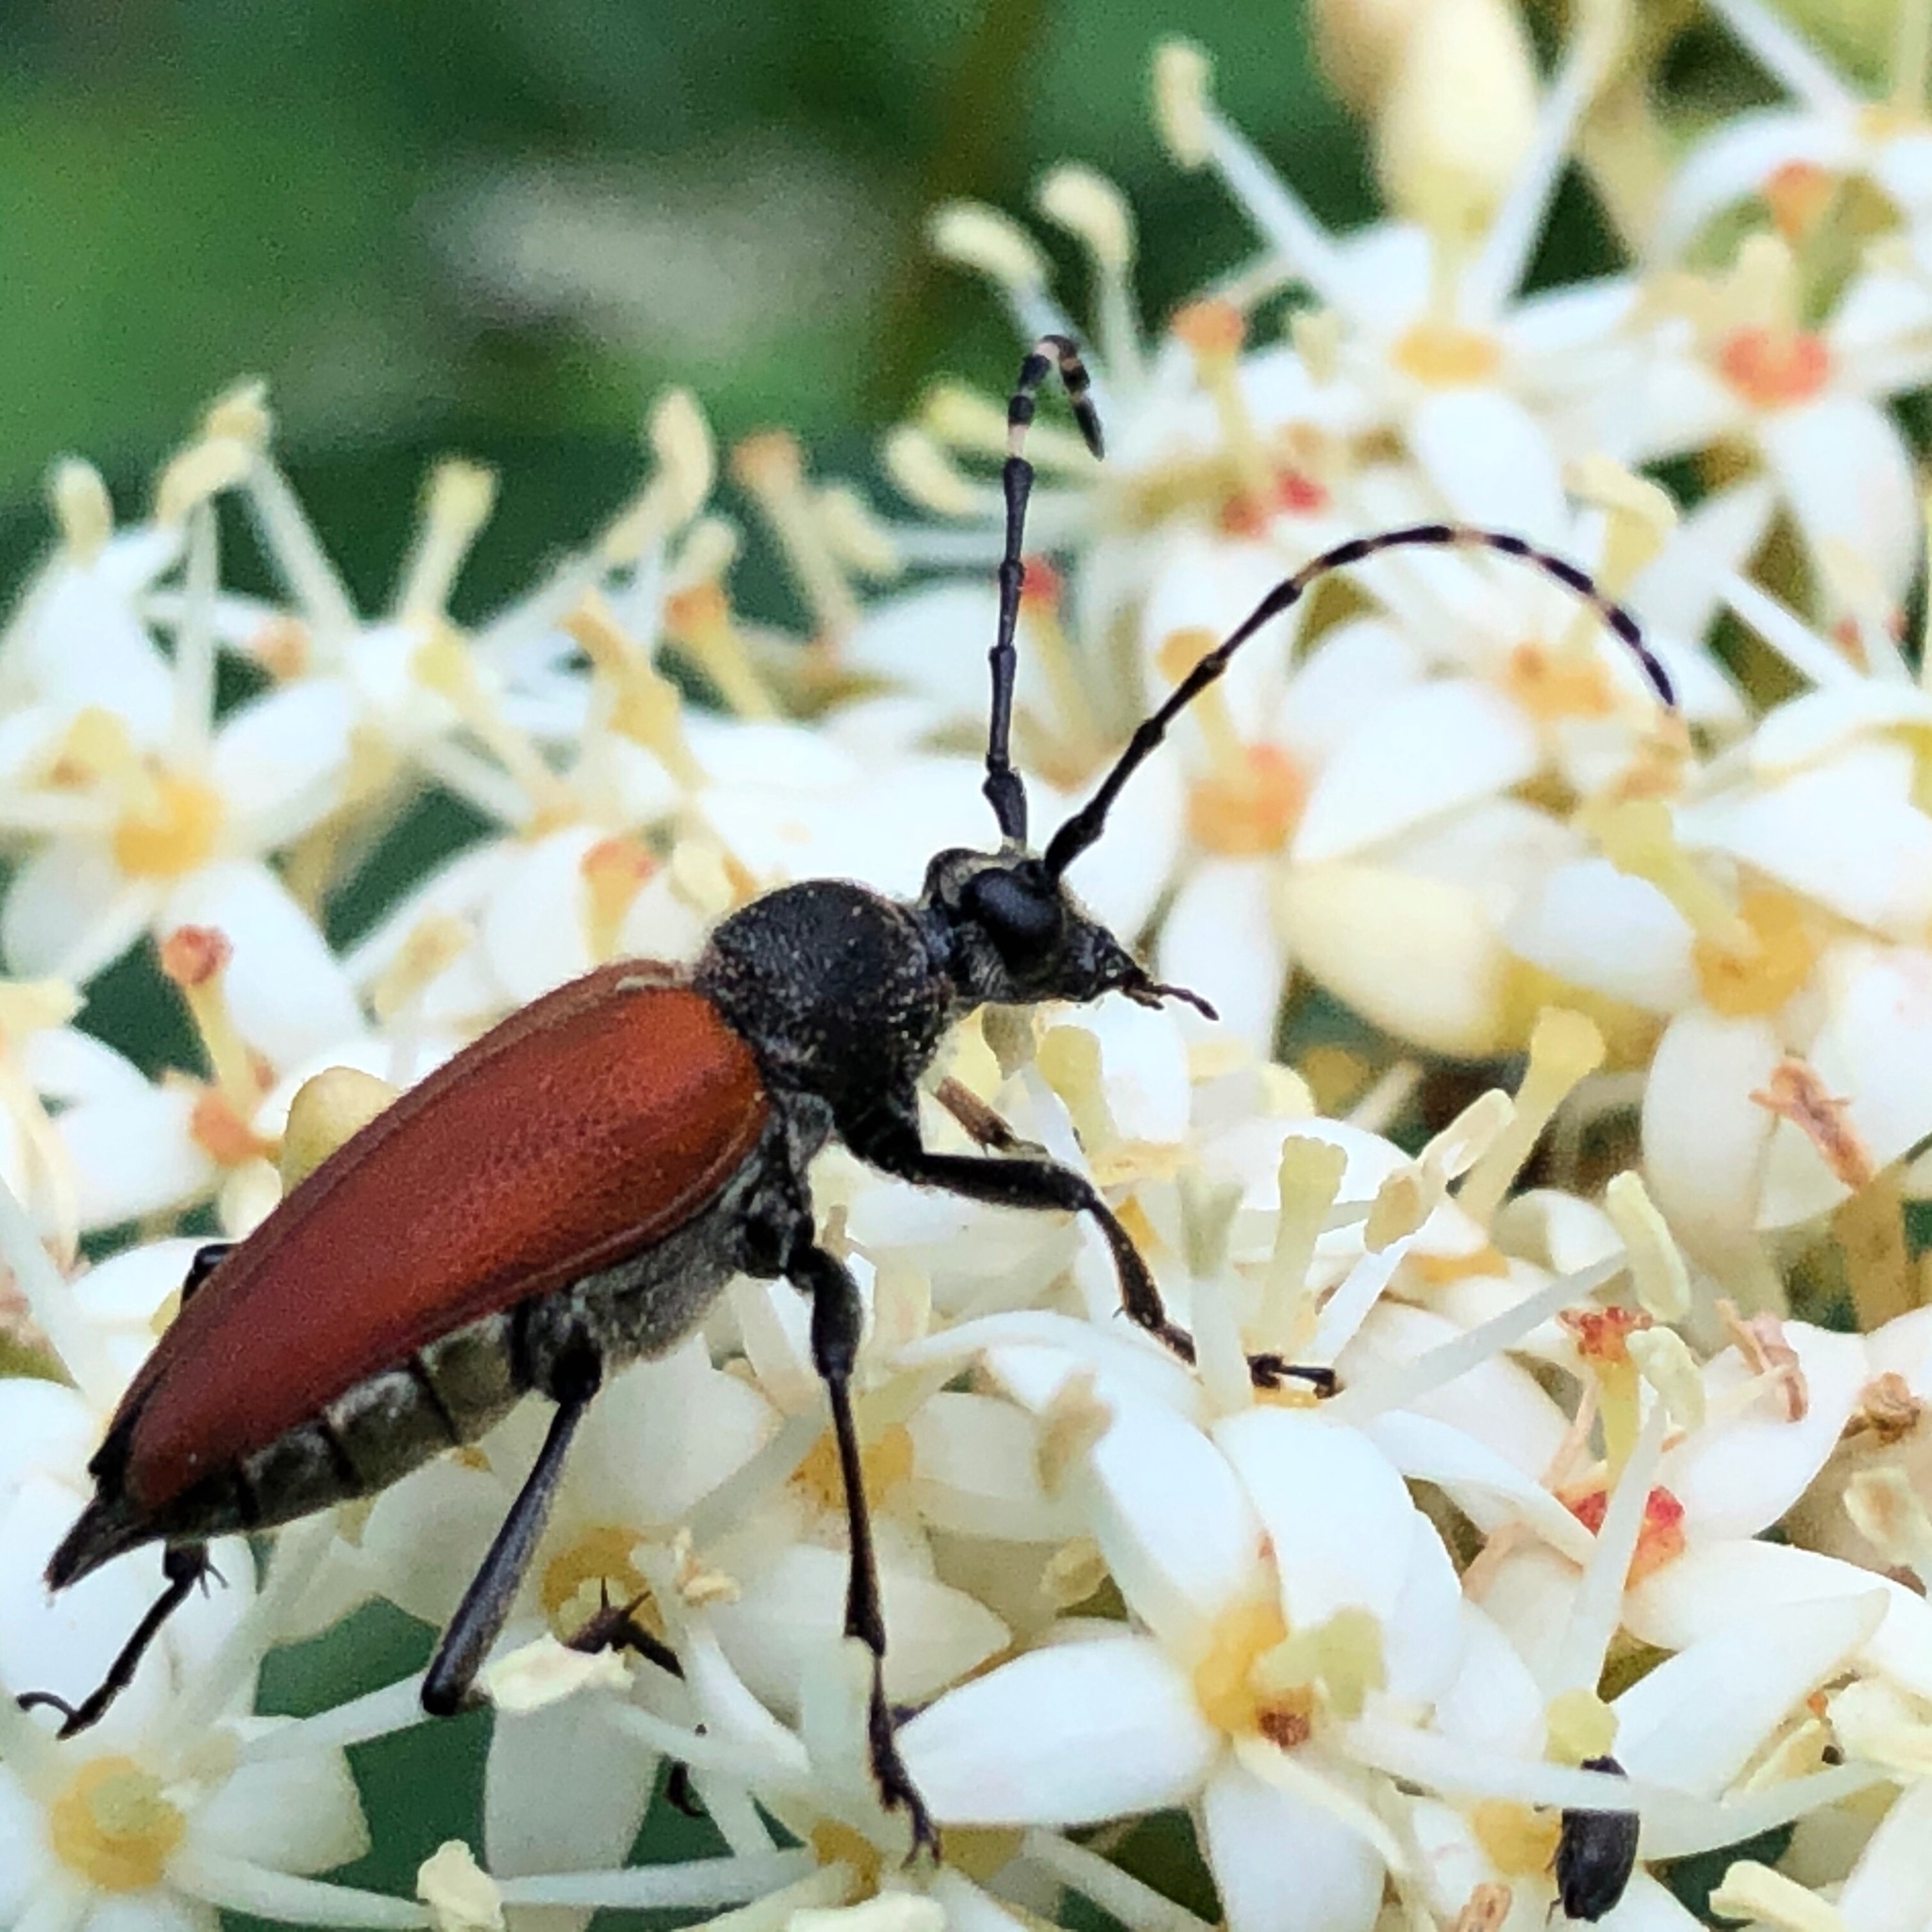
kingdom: Animalia
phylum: Arthropoda
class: Insecta
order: Coleoptera
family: Cerambycidae
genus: Brachyleptura
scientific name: Brachyleptura rubrica
